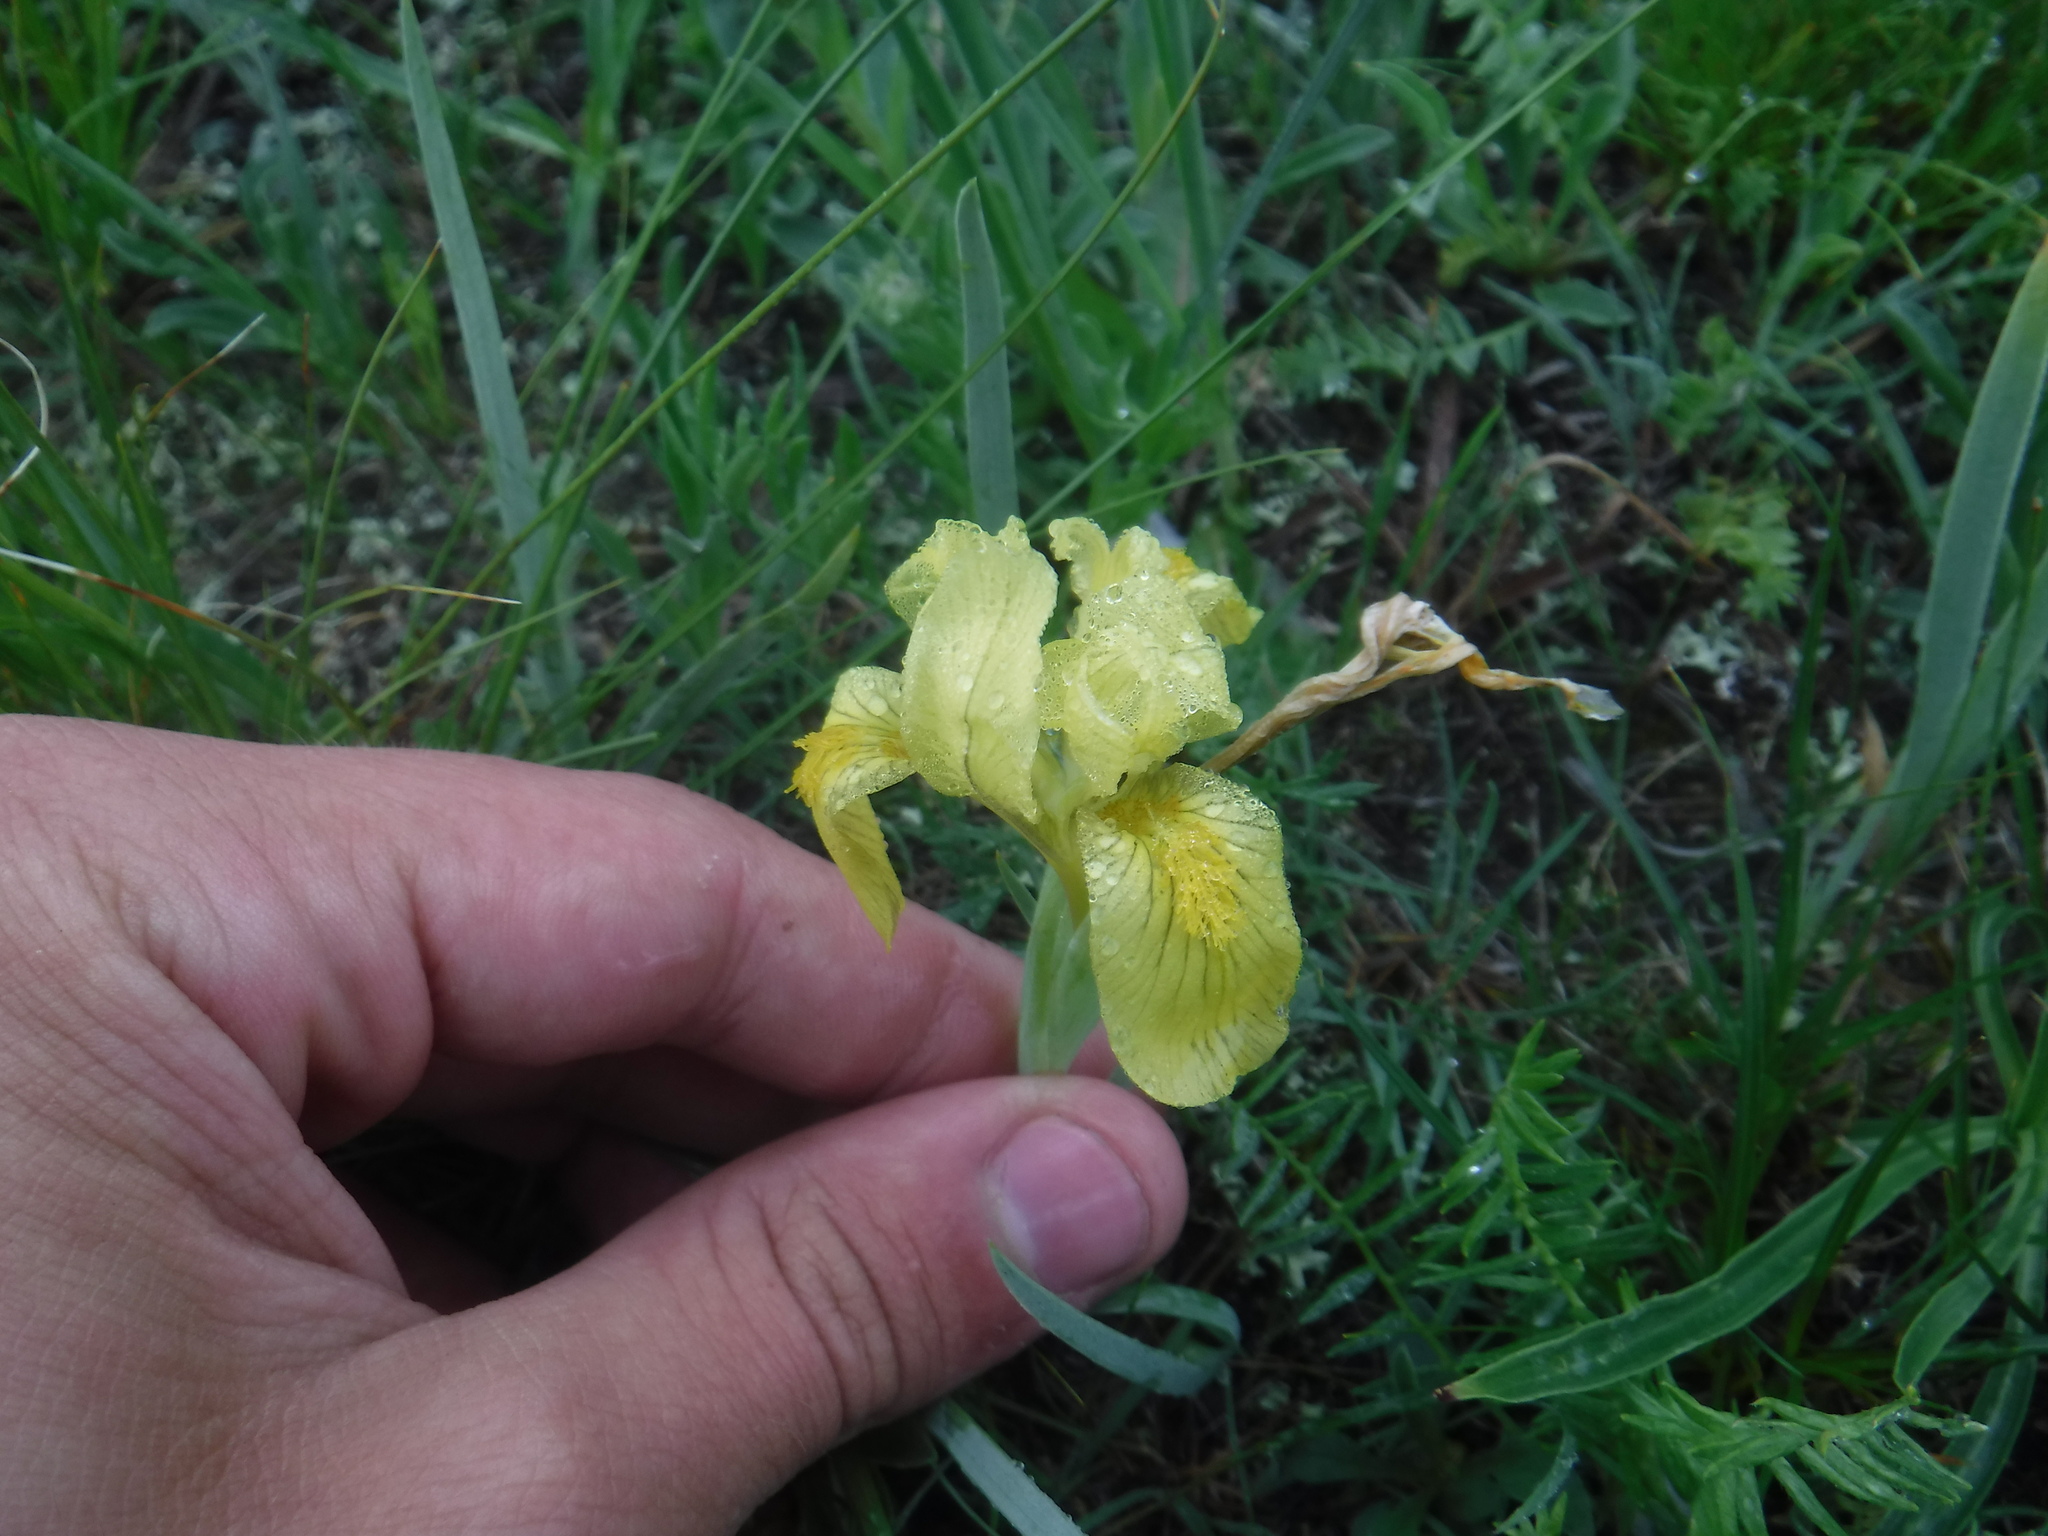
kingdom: Plantae
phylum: Tracheophyta
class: Liliopsida
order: Asparagales
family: Iridaceae
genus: Iris
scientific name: Iris humilis
